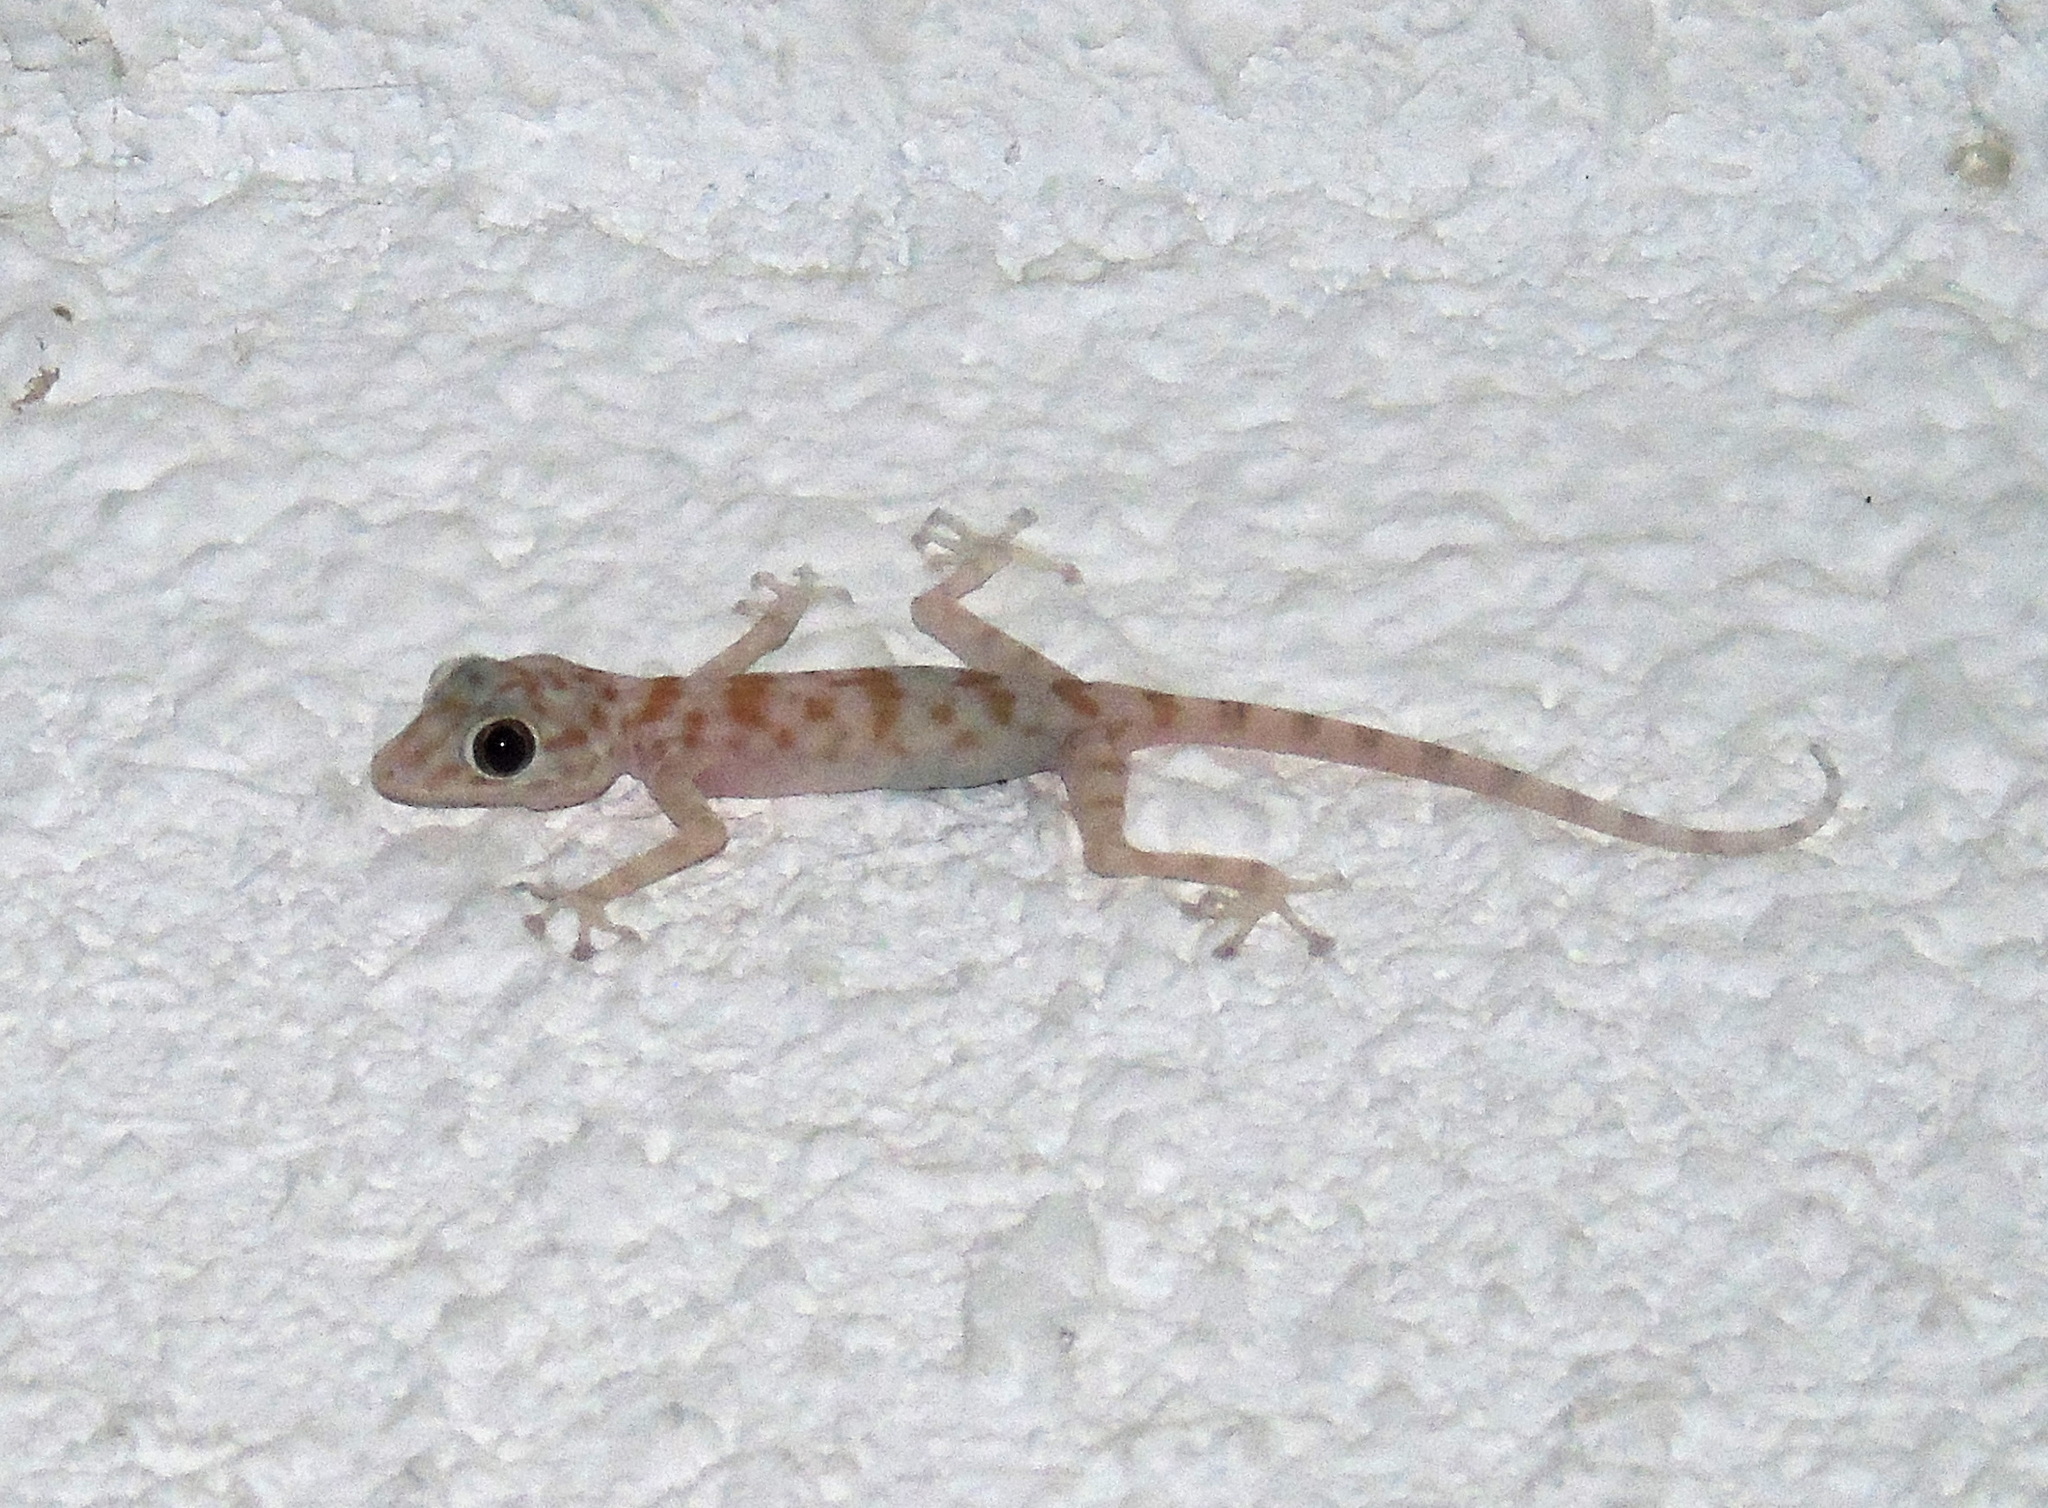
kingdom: Animalia
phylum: Chordata
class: Squamata
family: Phyllodactylidae
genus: Ptyodactylus
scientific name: Ptyodactylus hasselquistii
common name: Hasselquist’s fan-footed gecko
